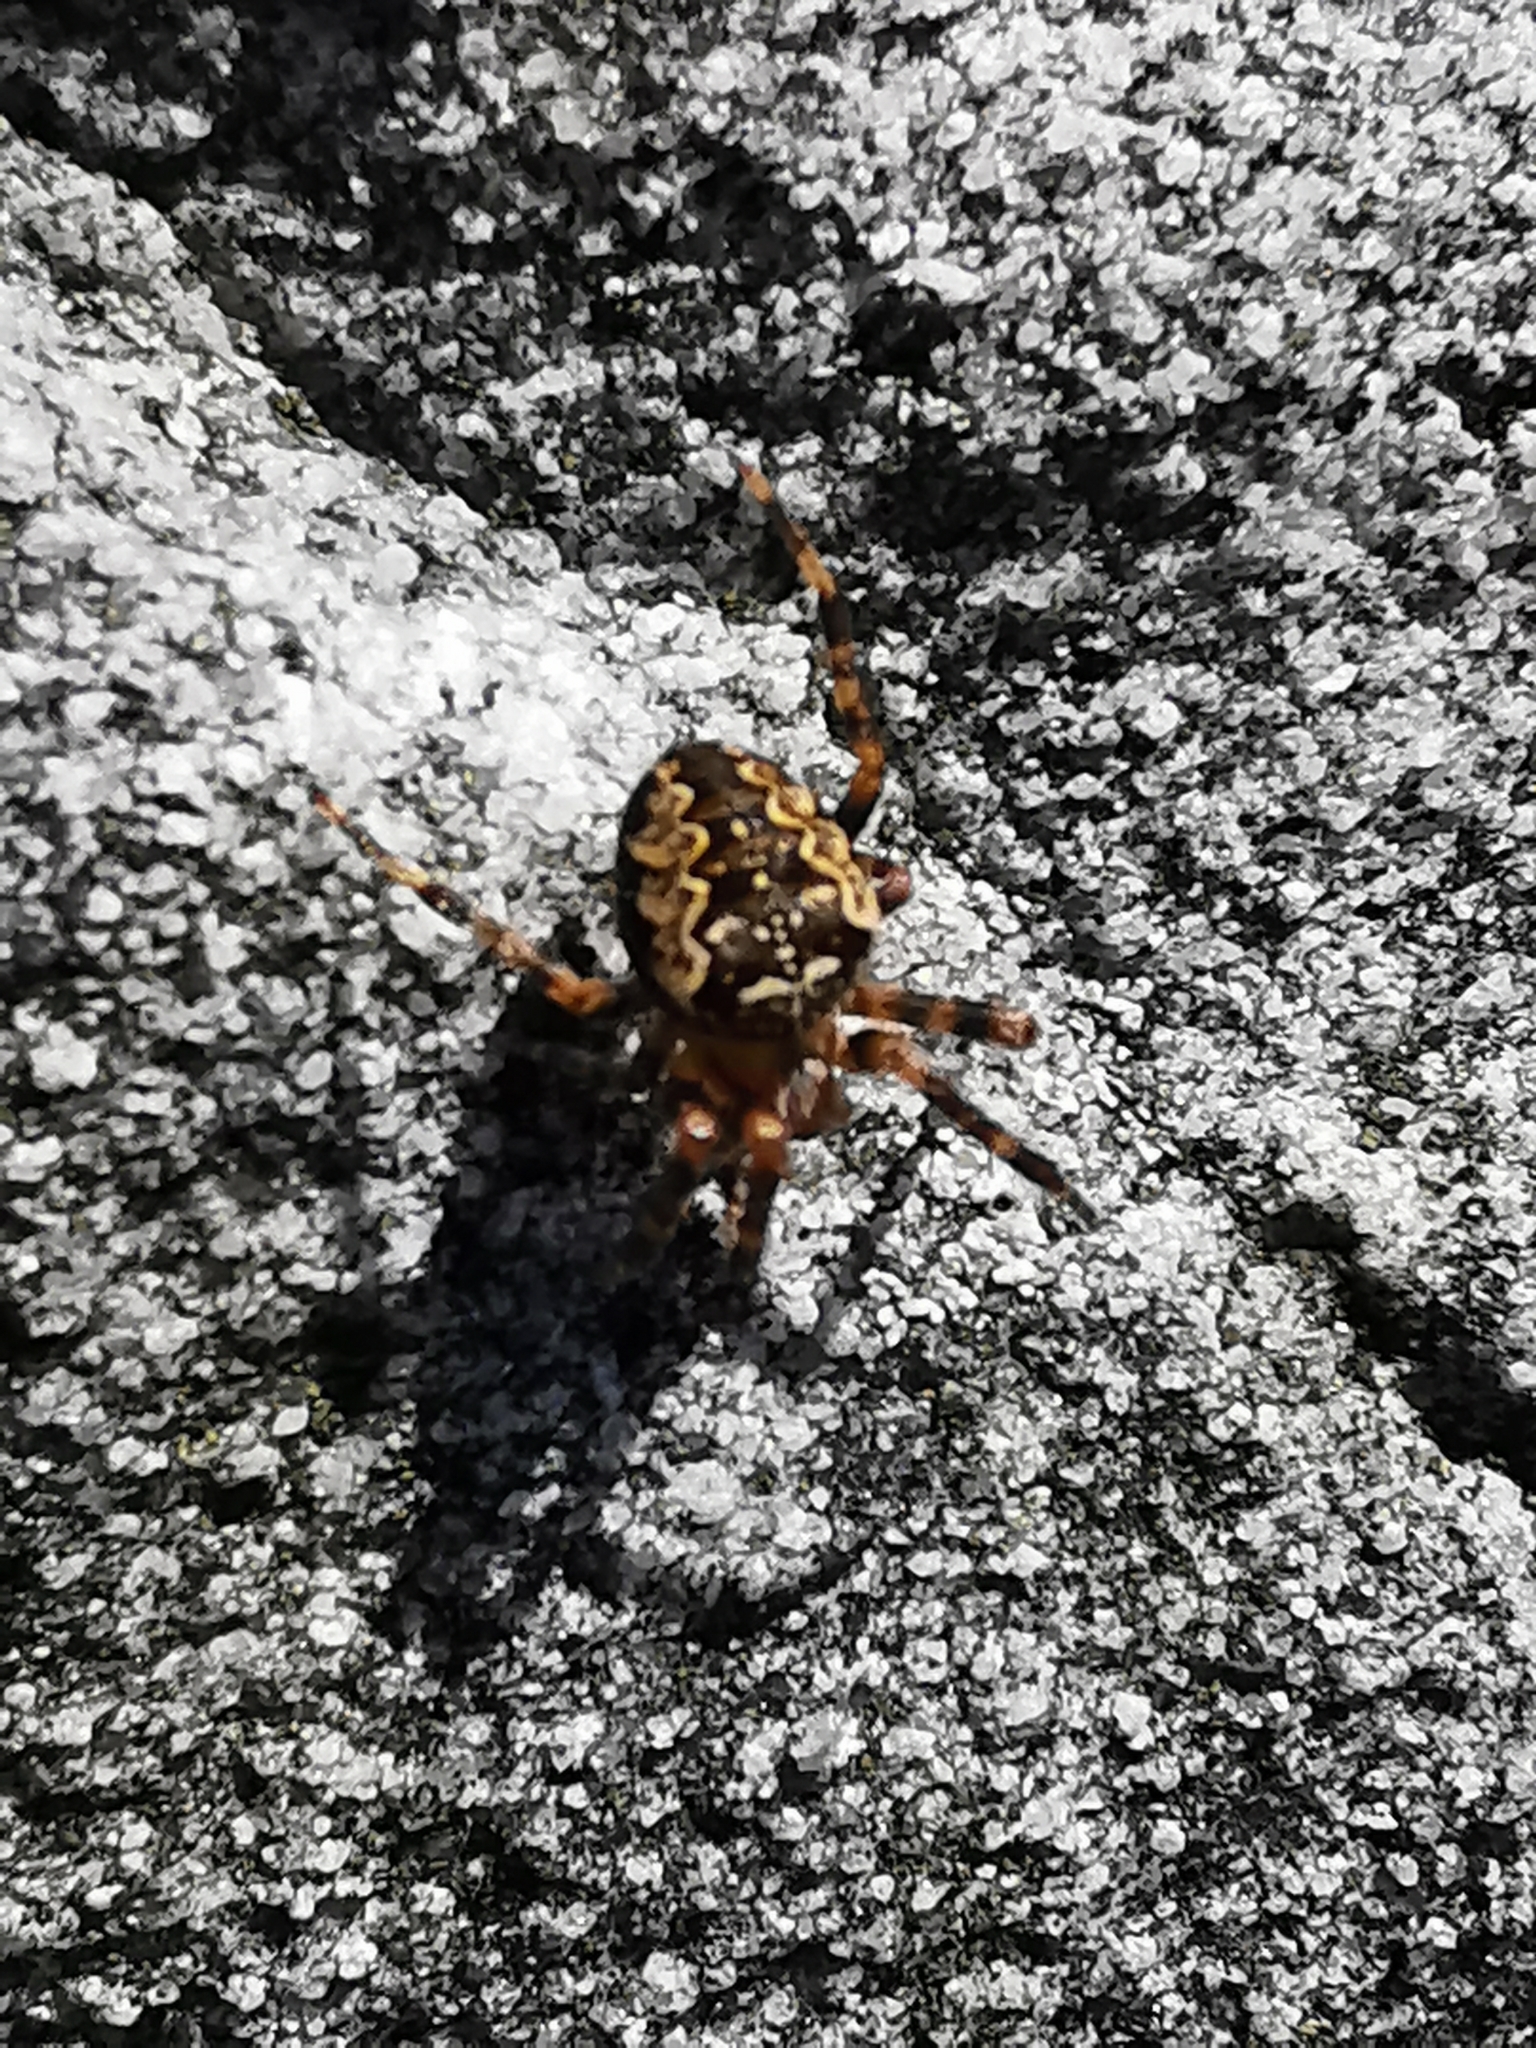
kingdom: Animalia
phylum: Arthropoda
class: Arachnida
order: Araneae
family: Araneidae
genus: Araneus
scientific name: Araneus diadematus
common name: Cross orbweaver
